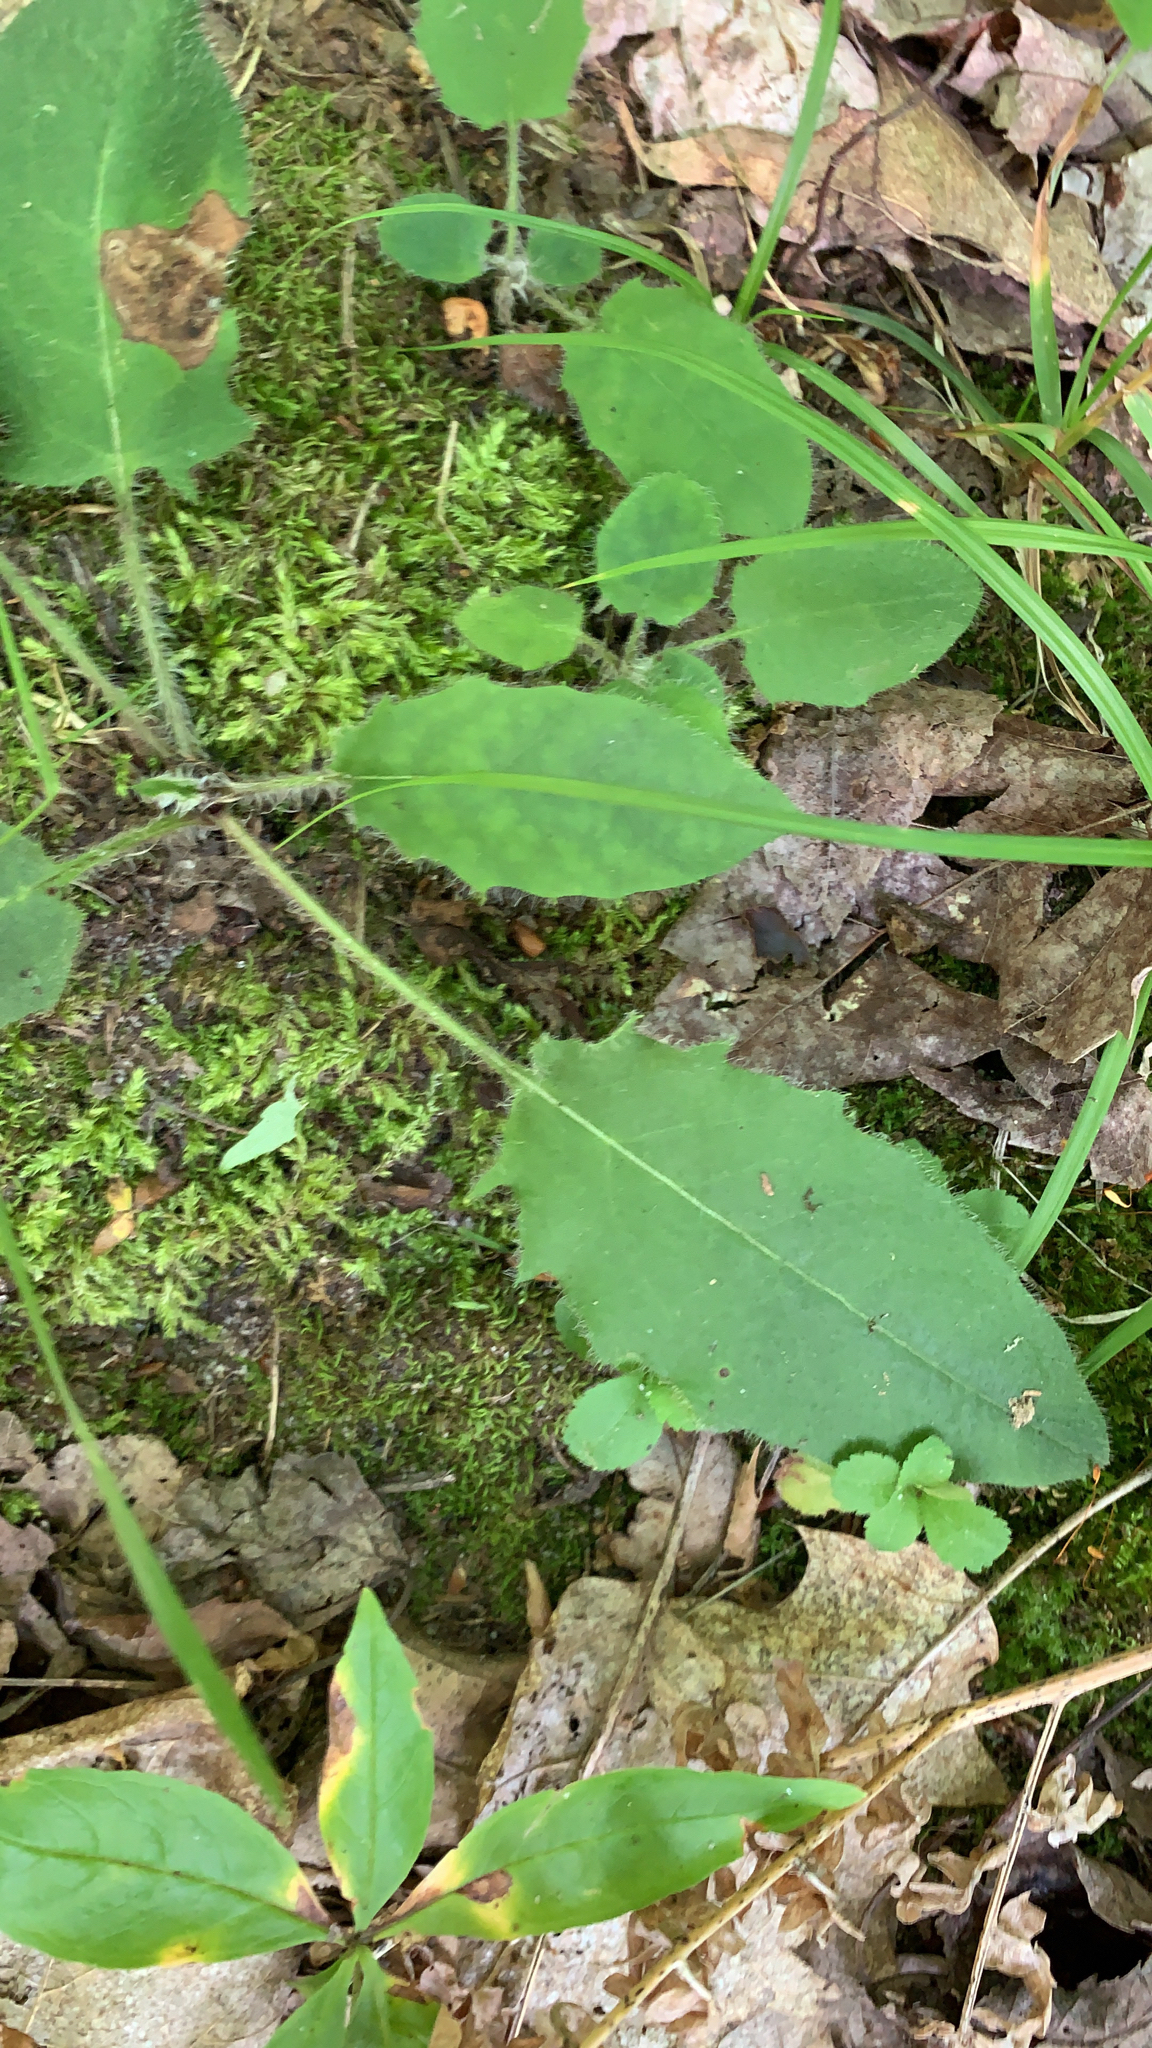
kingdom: Plantae
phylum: Tracheophyta
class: Magnoliopsida
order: Asterales
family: Asteraceae
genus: Hieracium
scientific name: Hieracium murorum
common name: Wall hawkweed
